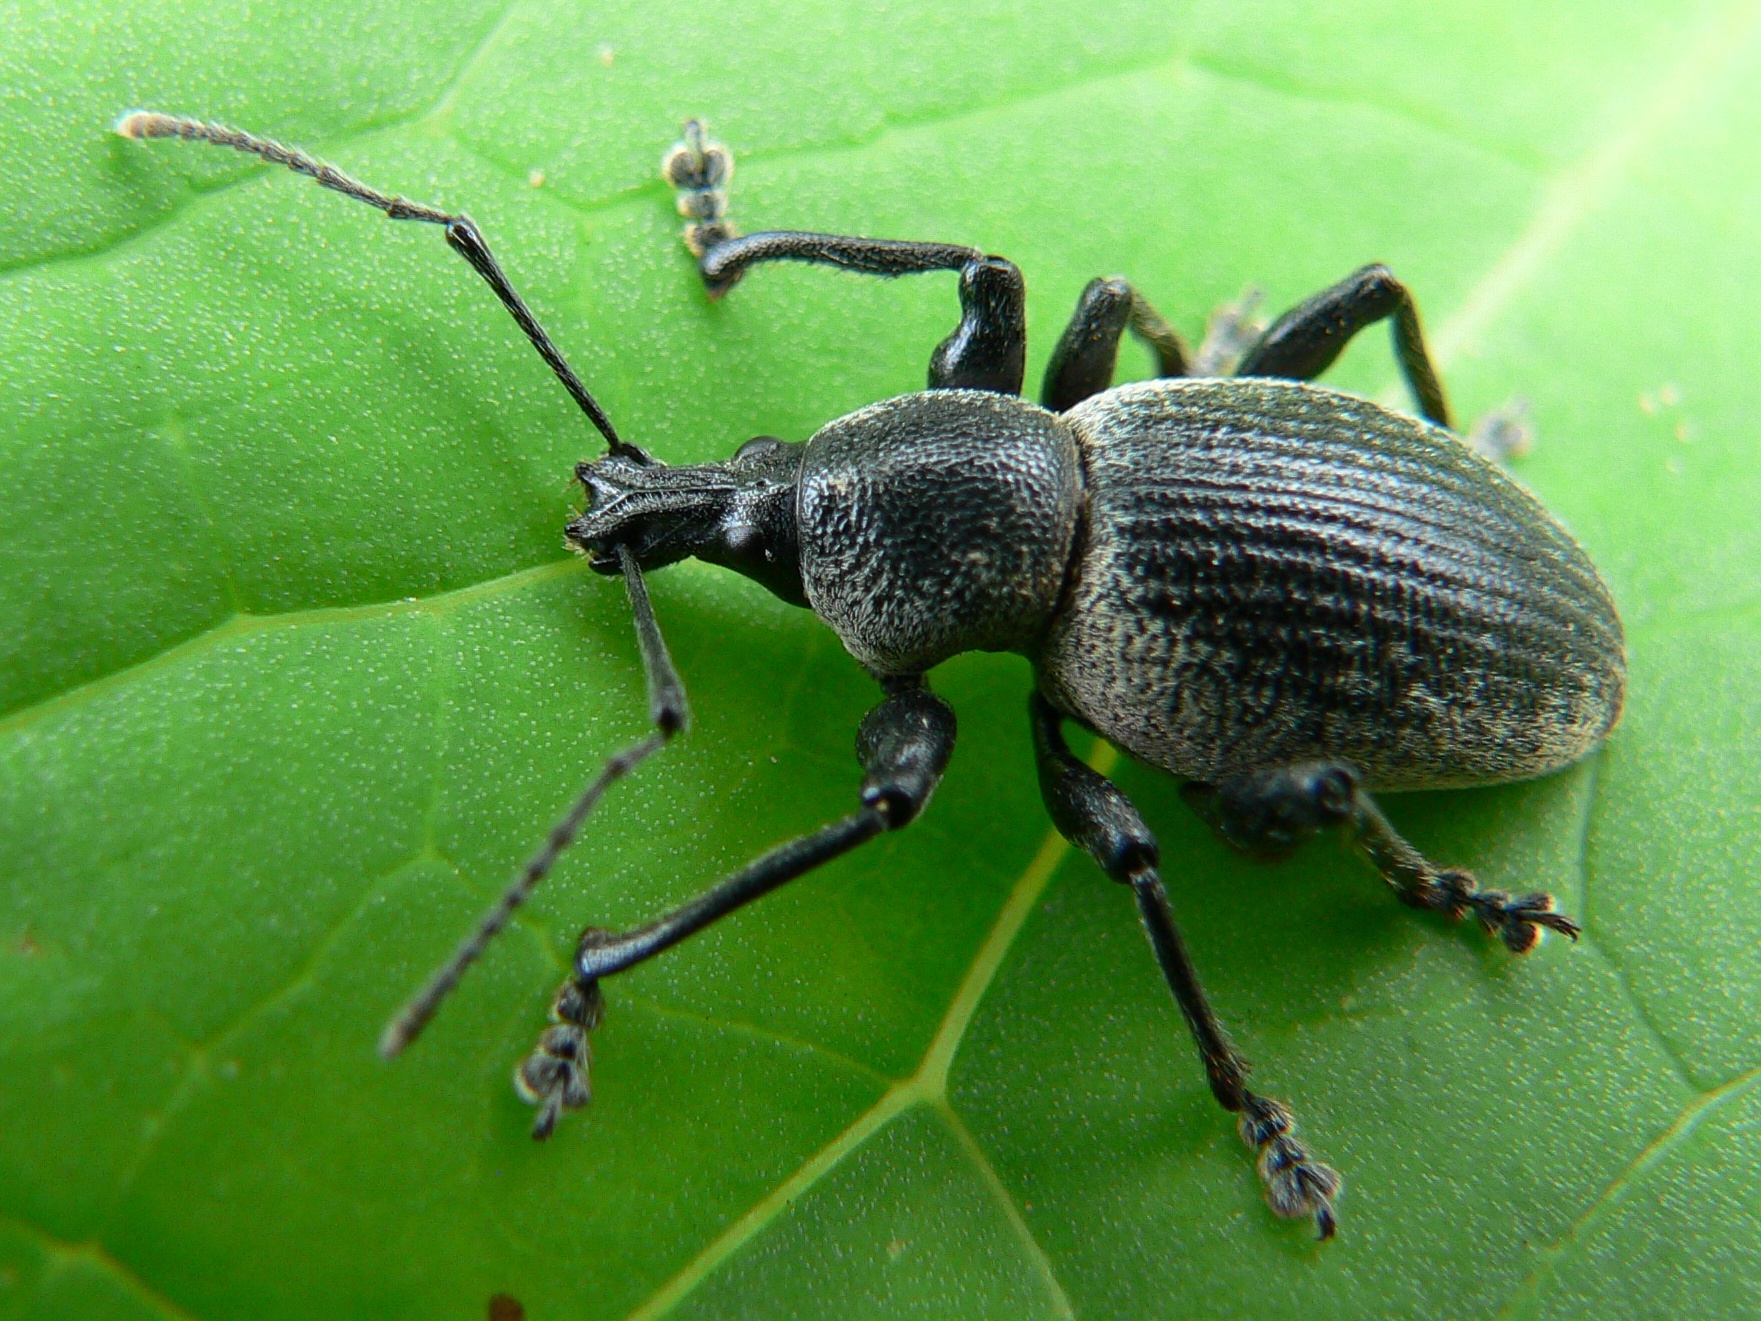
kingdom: Animalia
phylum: Arthropoda
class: Insecta
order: Coleoptera
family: Curculionidae
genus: Otiorhynchus
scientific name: Otiorhynchus vehemens
